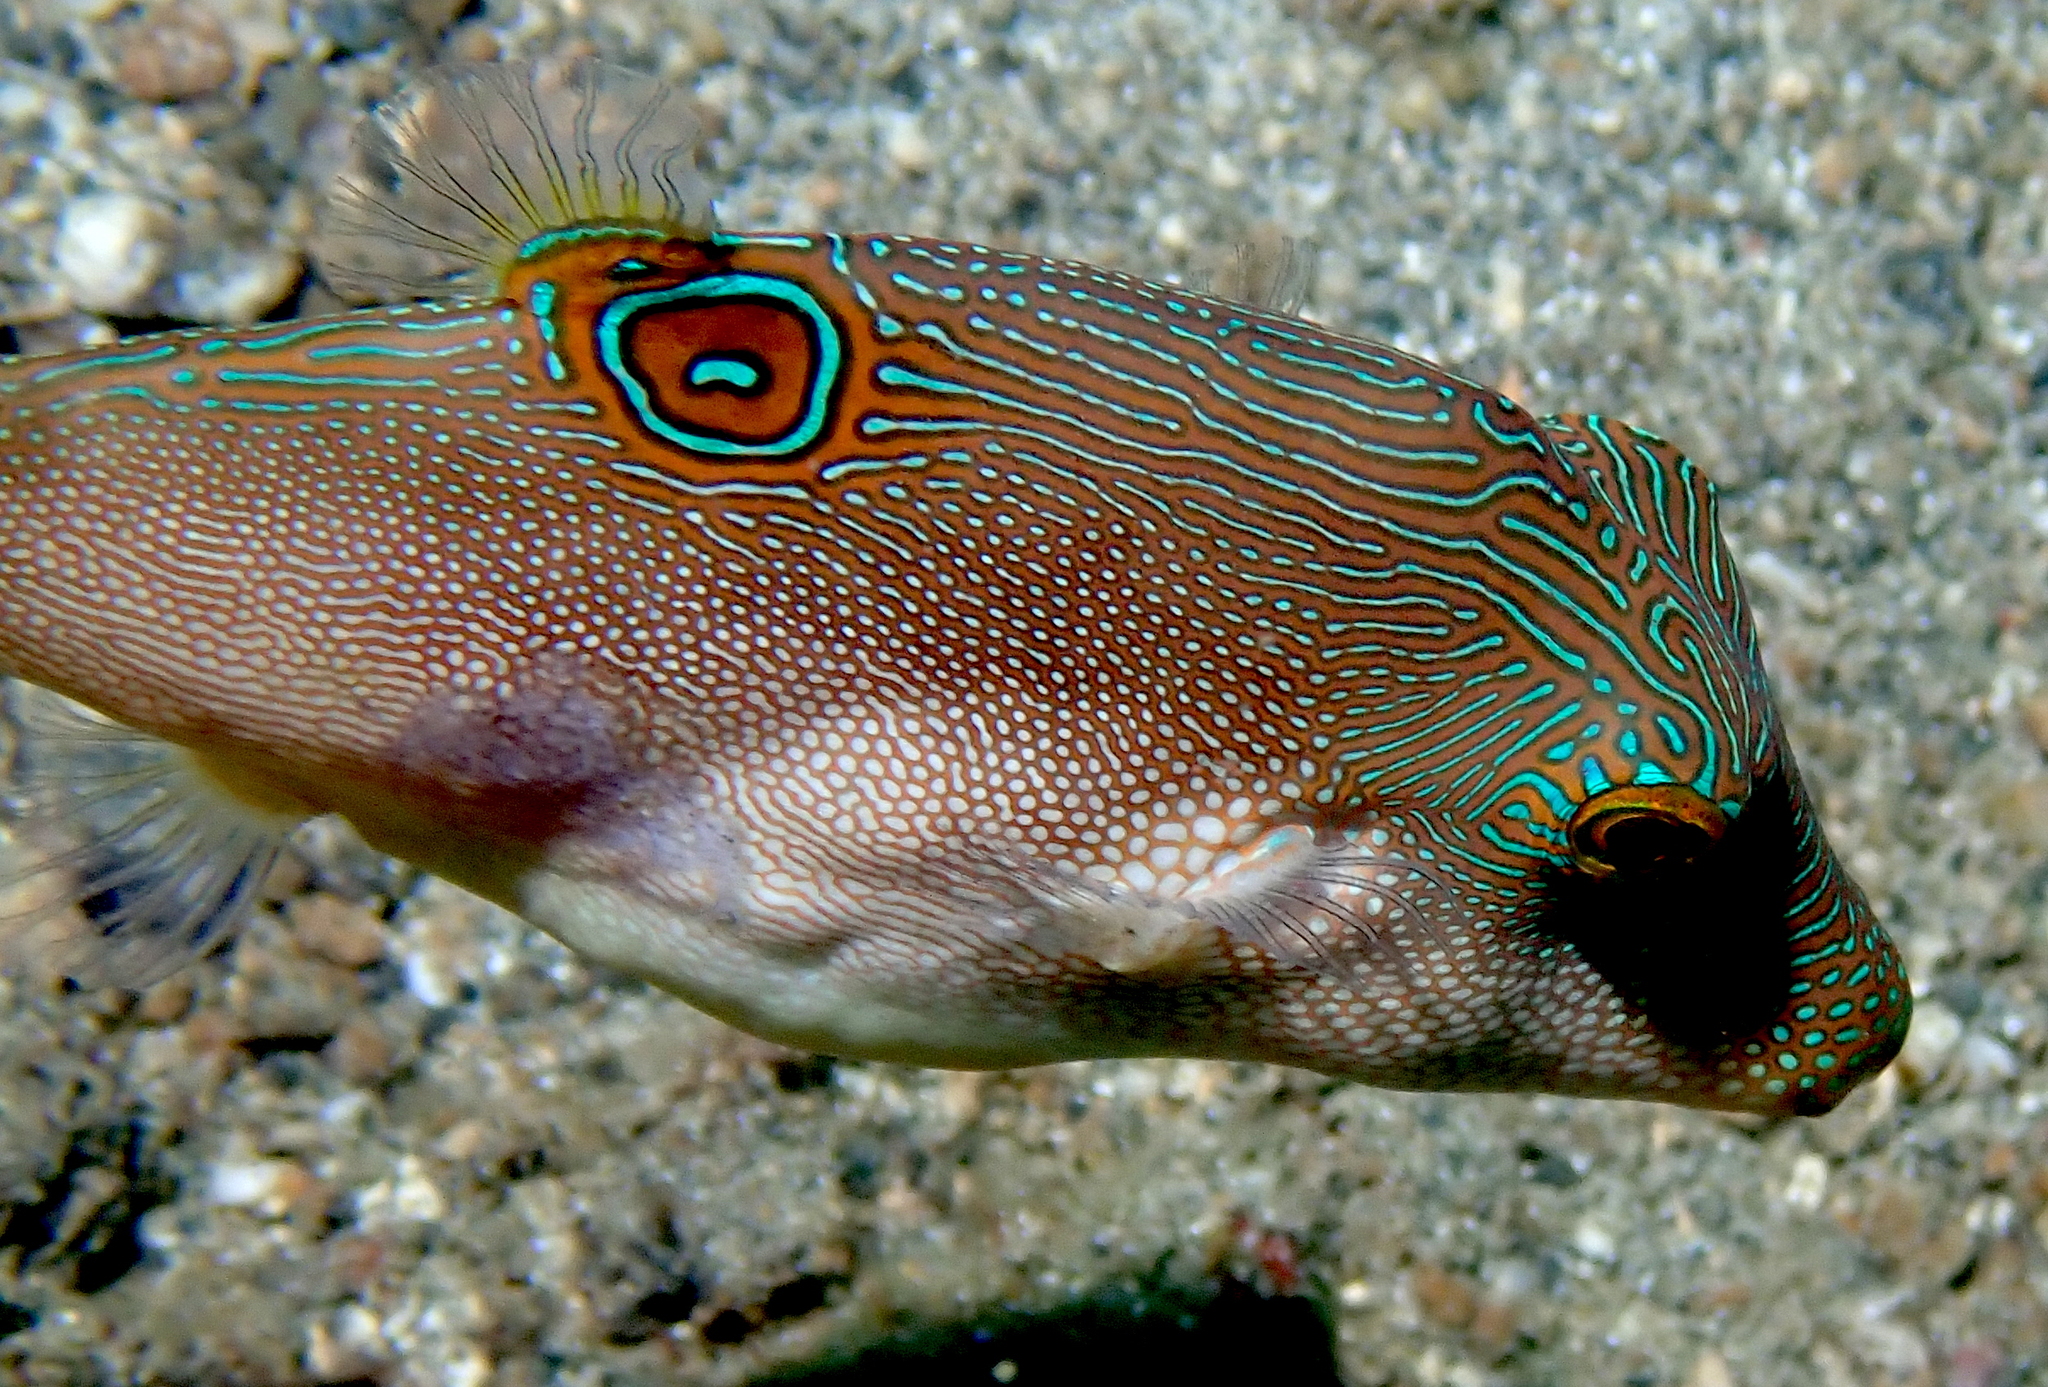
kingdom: Animalia
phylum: Chordata
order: Tetraodontiformes
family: Tetraodontidae
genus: Canthigaster
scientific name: Canthigaster compressa
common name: Compressed toby
